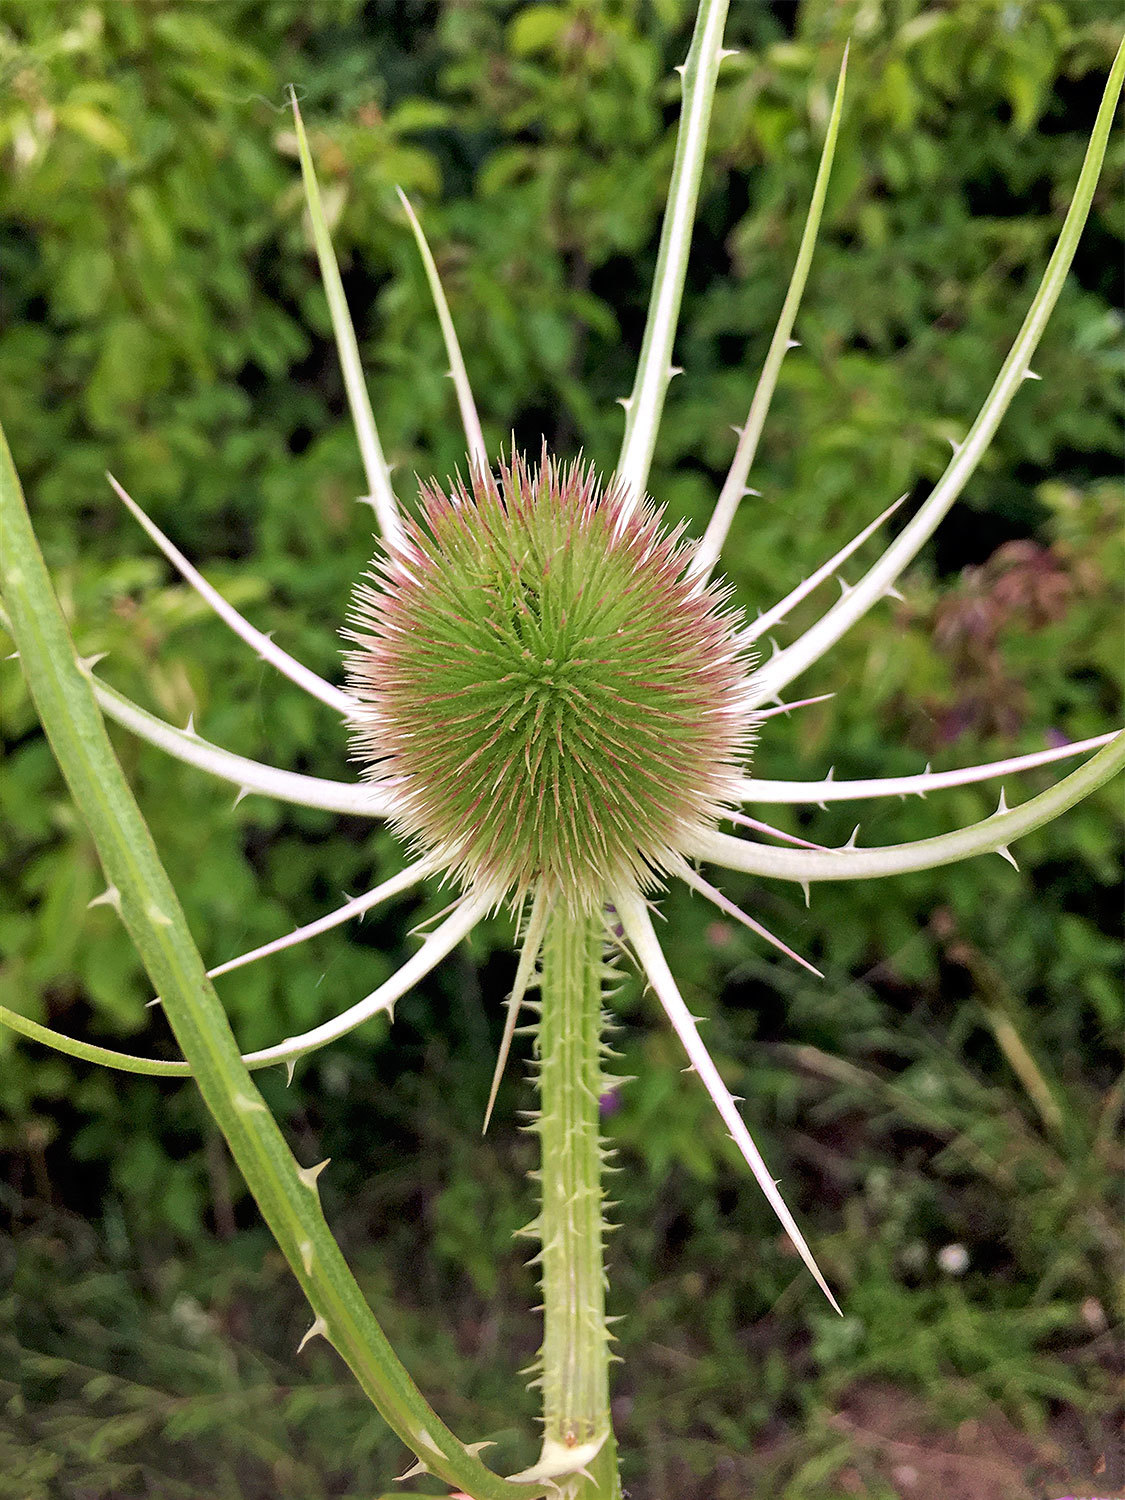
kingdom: Plantae
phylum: Tracheophyta
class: Magnoliopsida
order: Dipsacales
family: Caprifoliaceae
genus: Dipsacus
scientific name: Dipsacus fullonum
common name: Teasel
